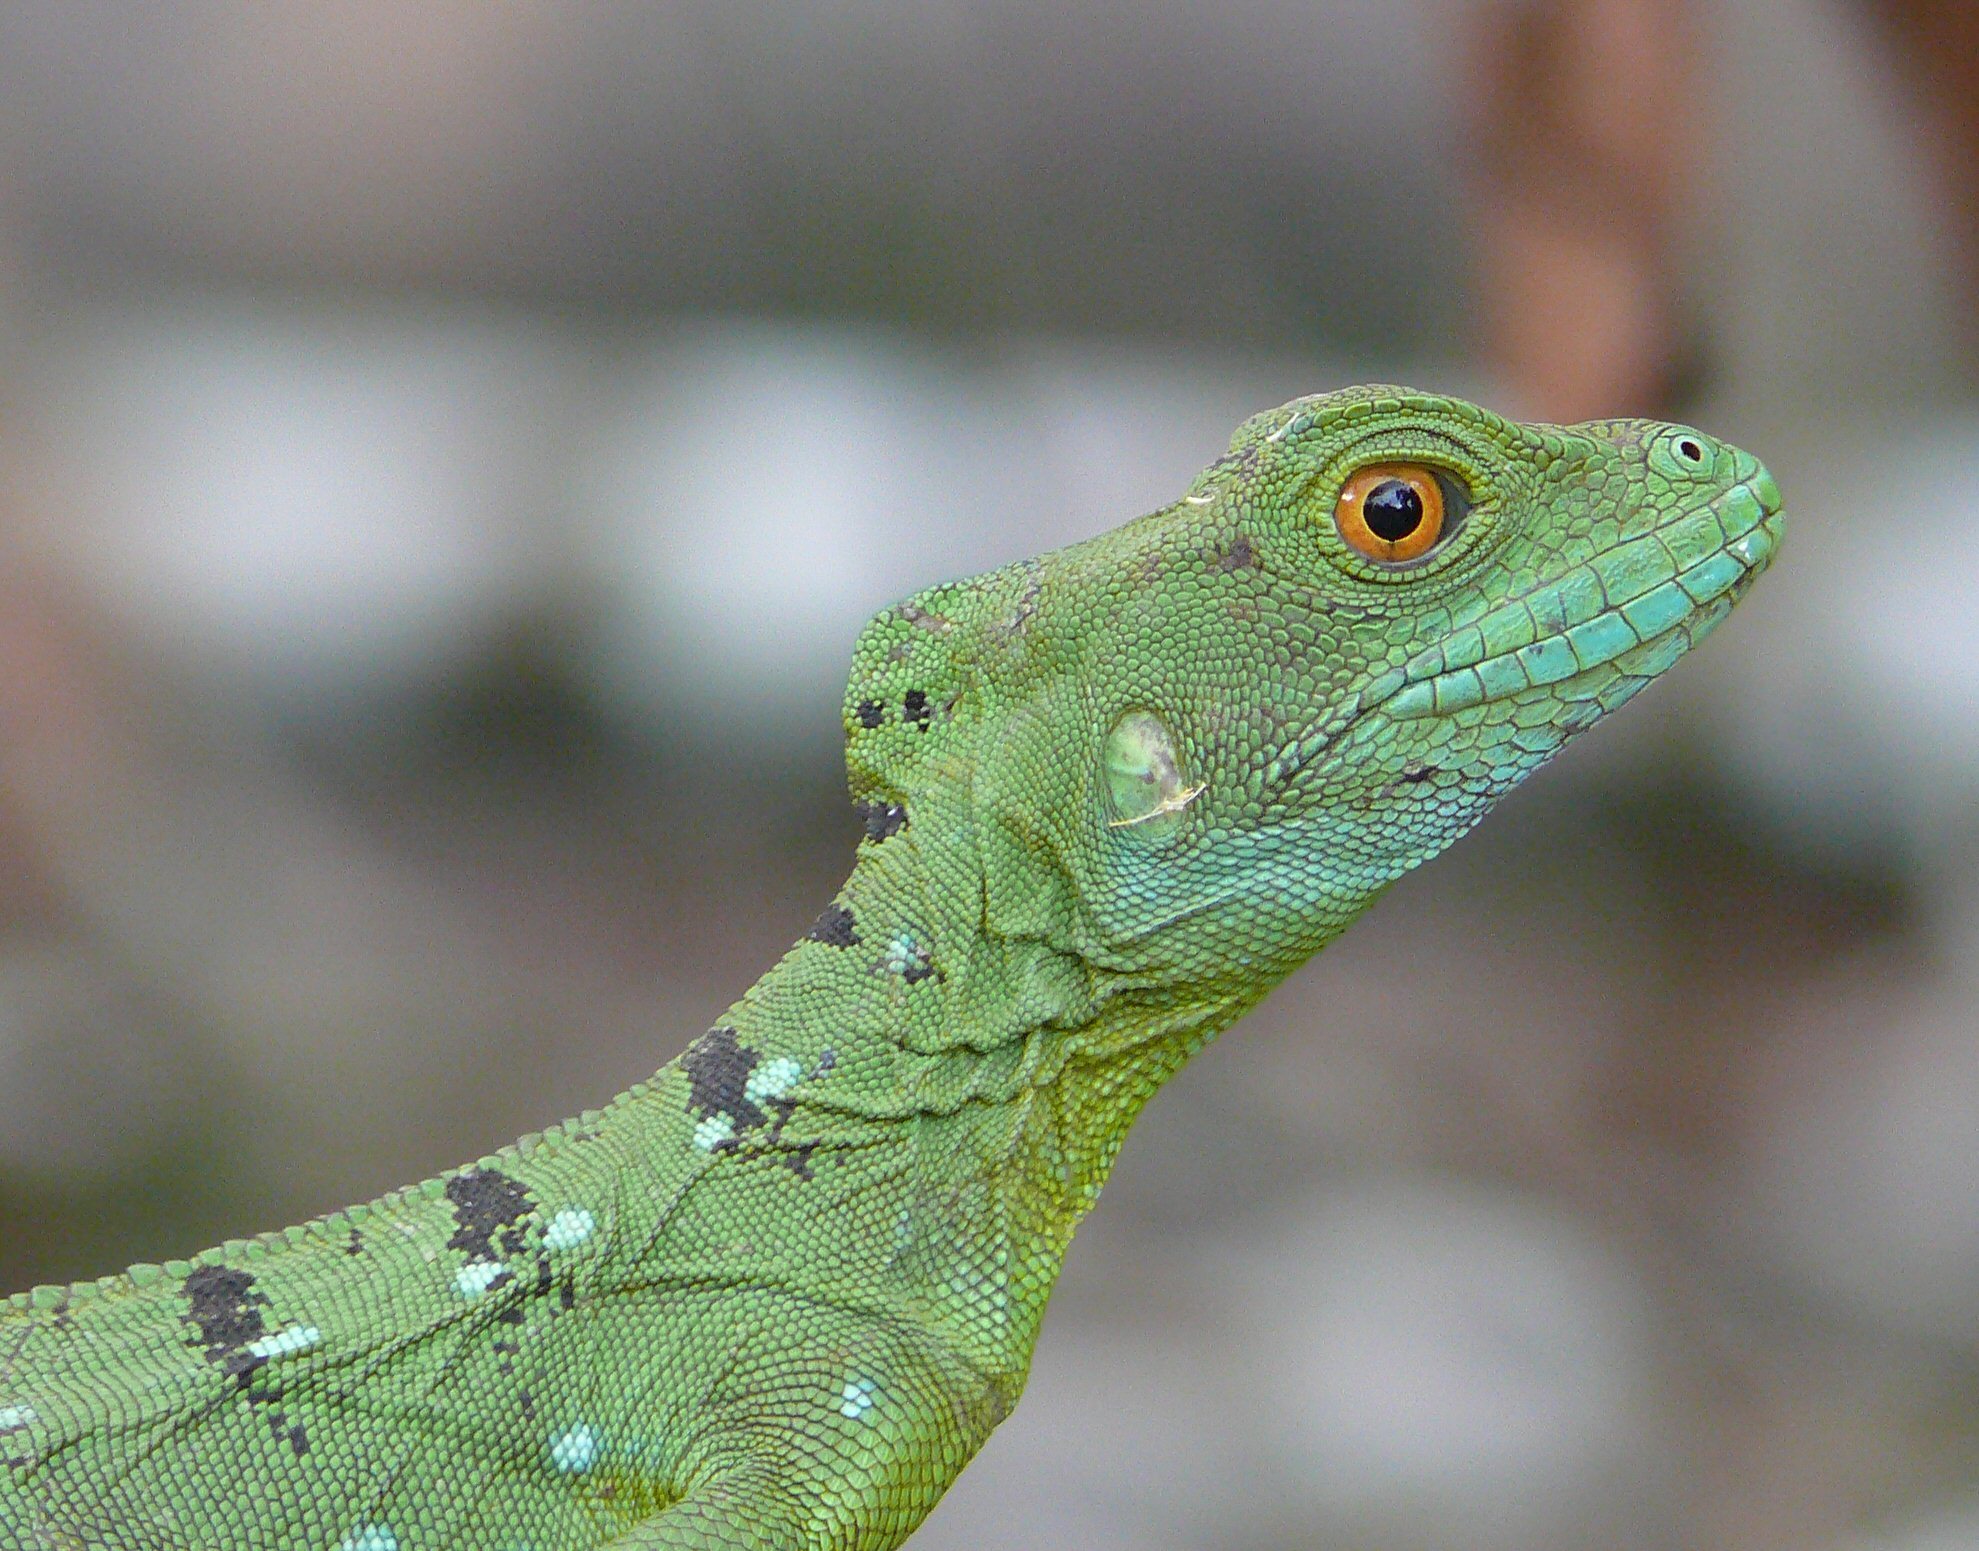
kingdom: Animalia
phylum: Chordata
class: Squamata
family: Corytophanidae
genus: Basiliscus
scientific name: Basiliscus plumifrons
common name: Green basilisk
